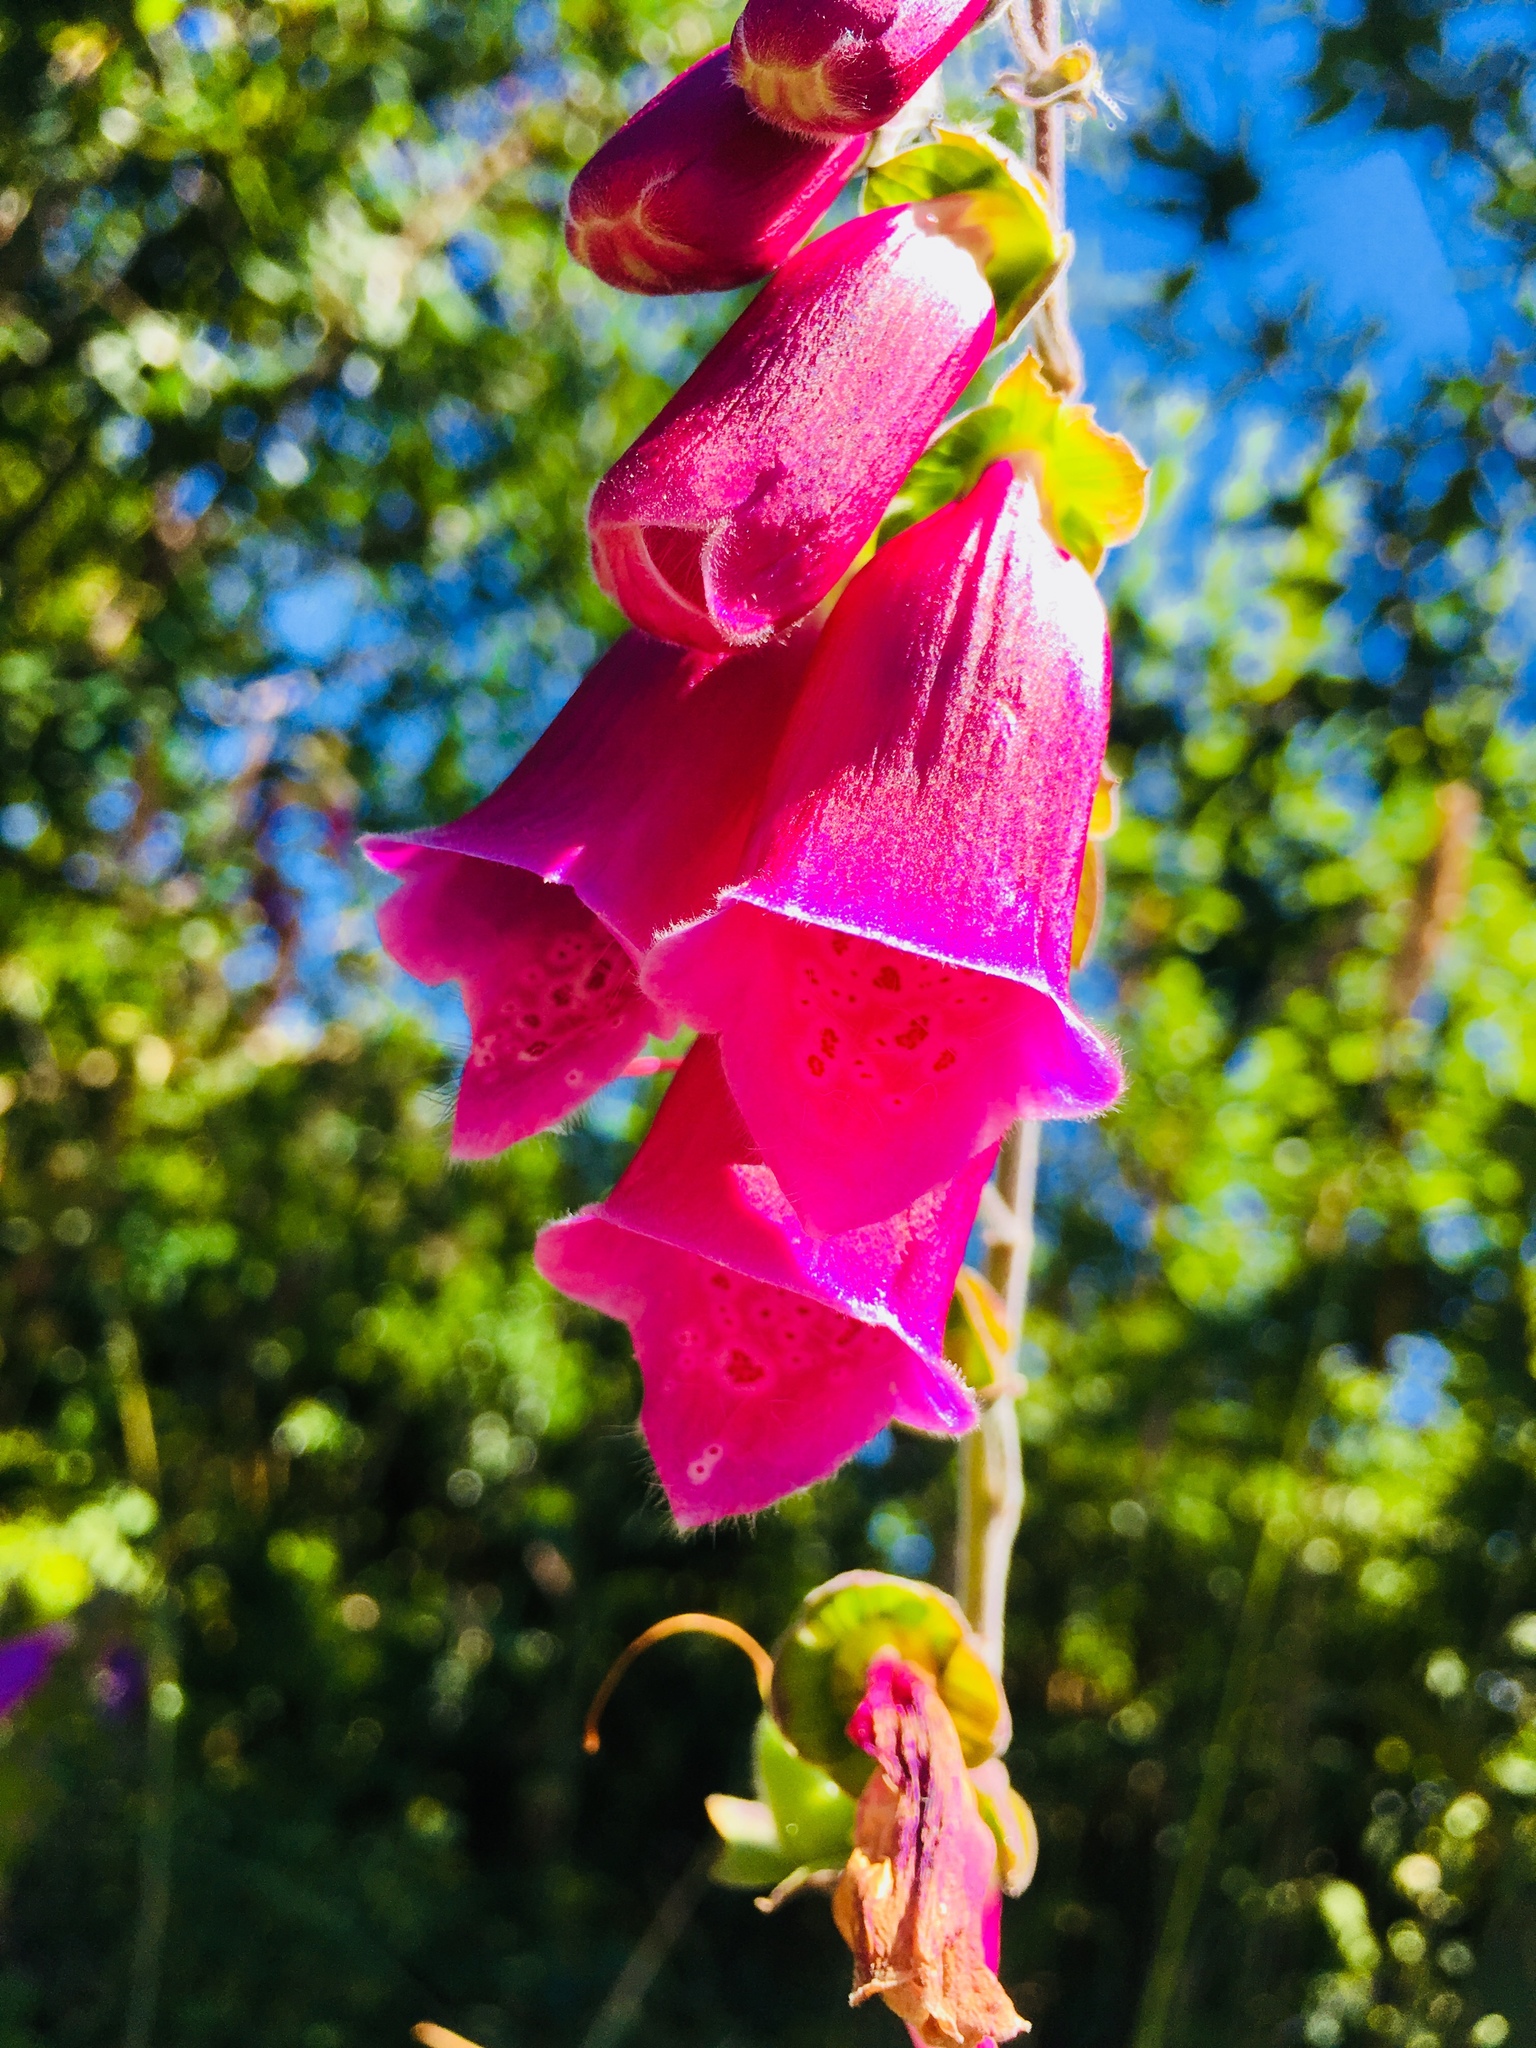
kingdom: Plantae
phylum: Tracheophyta
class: Magnoliopsida
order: Lamiales
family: Plantaginaceae
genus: Digitalis
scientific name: Digitalis purpurea
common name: Foxglove
